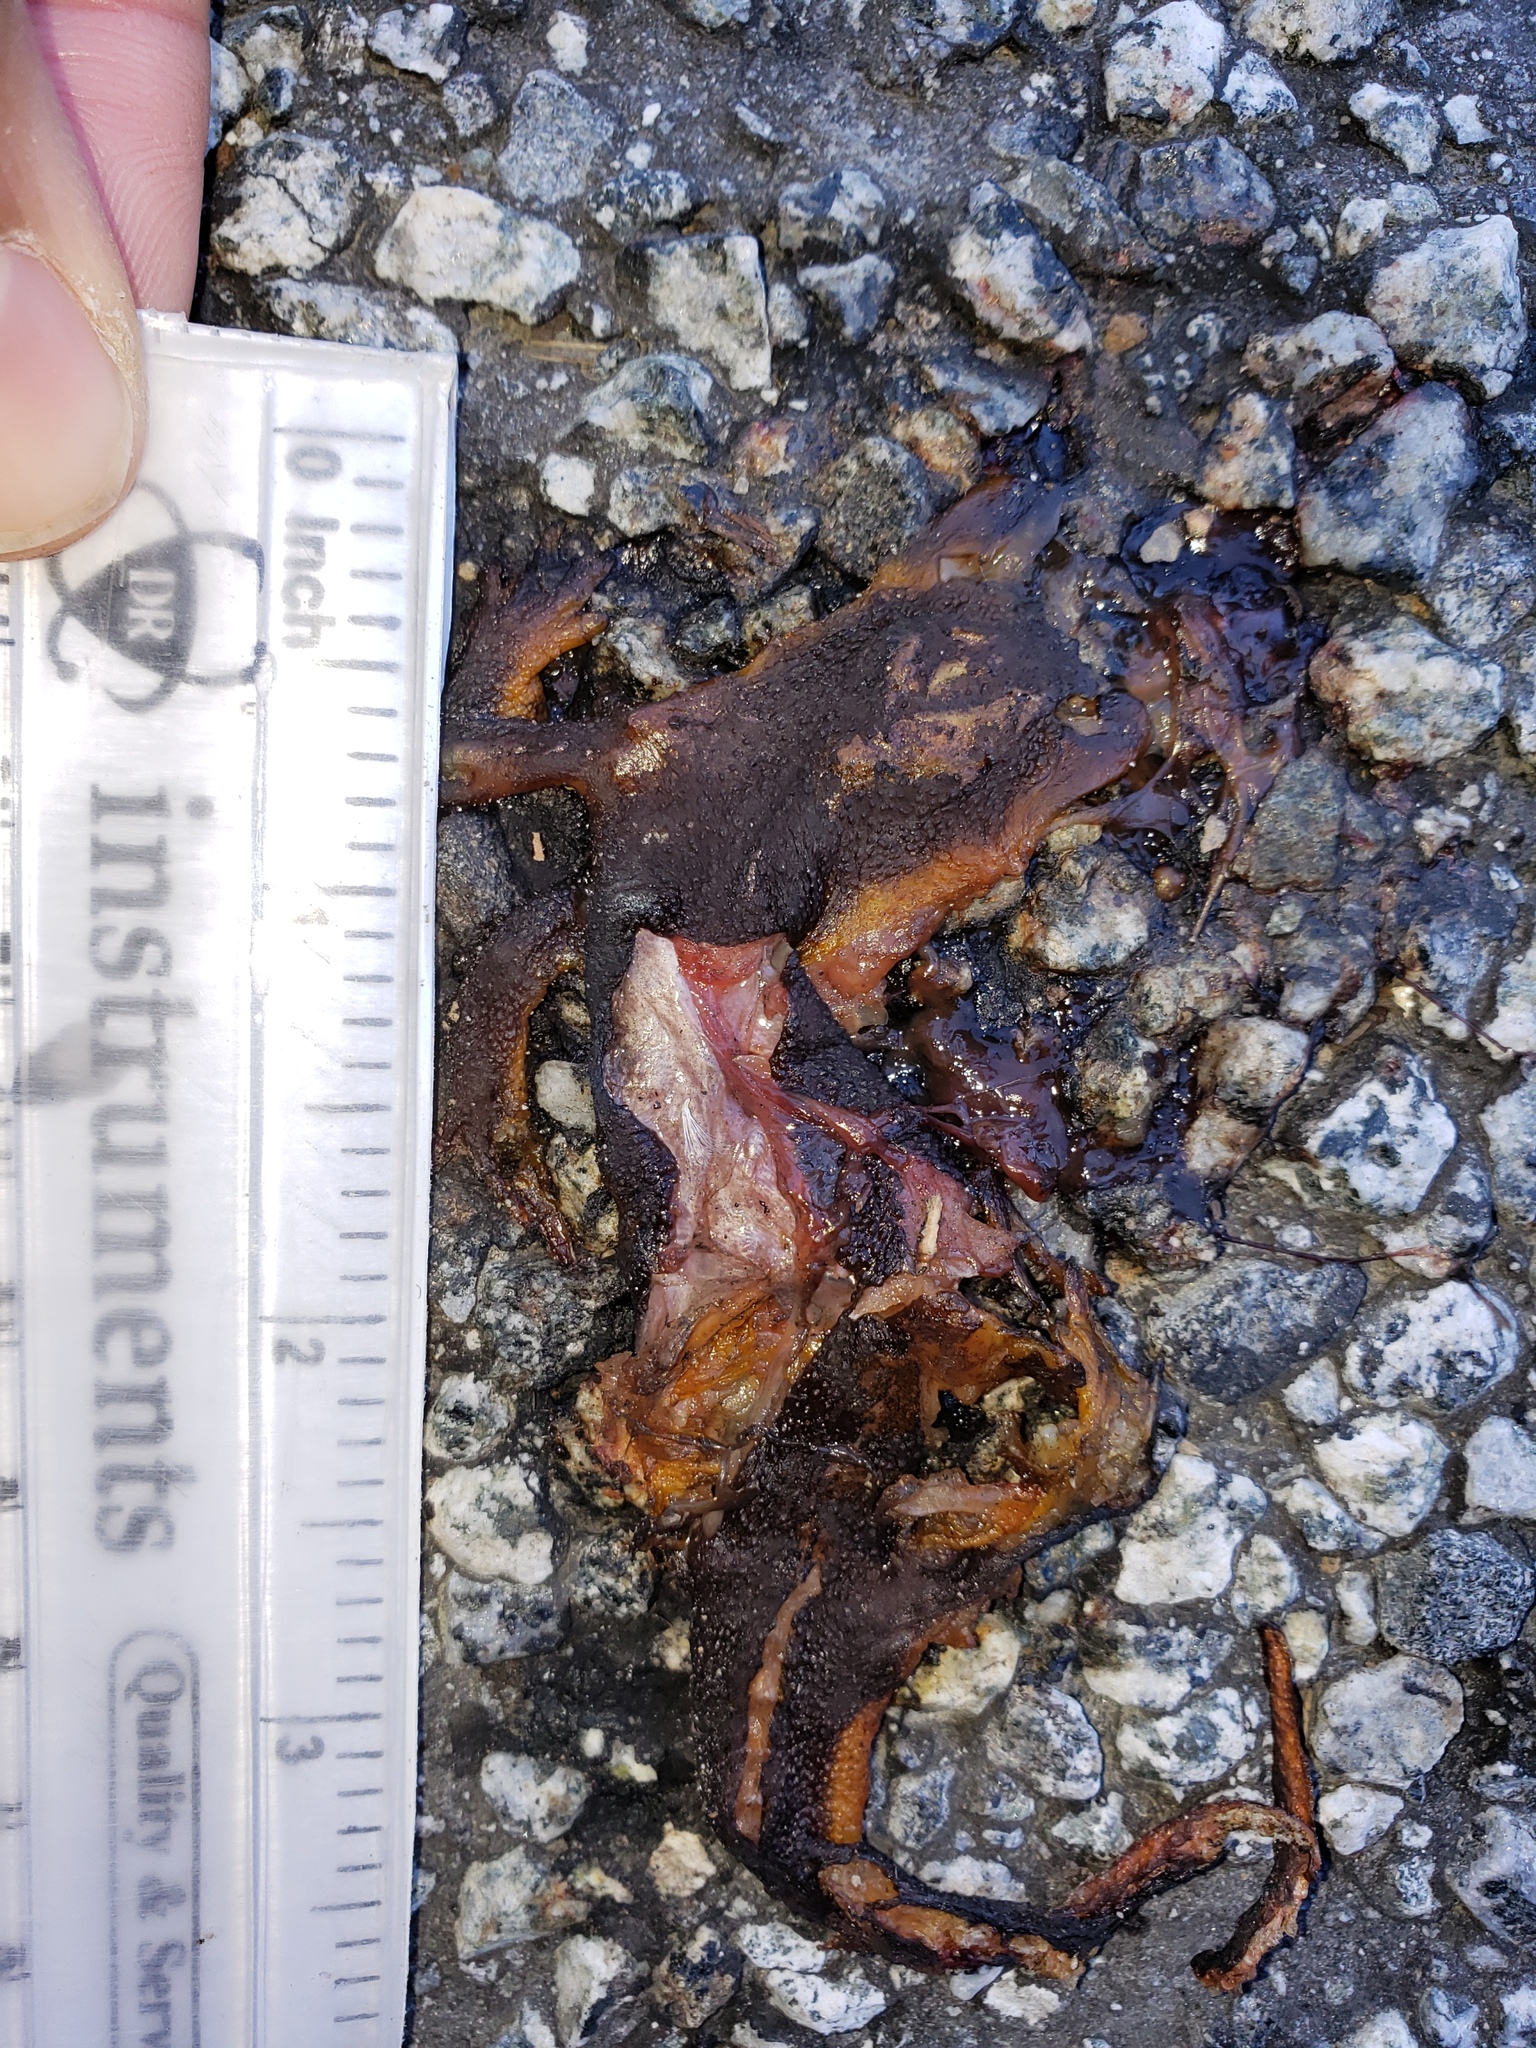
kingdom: Animalia
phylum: Chordata
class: Amphibia
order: Caudata
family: Salamandridae
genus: Taricha
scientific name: Taricha
